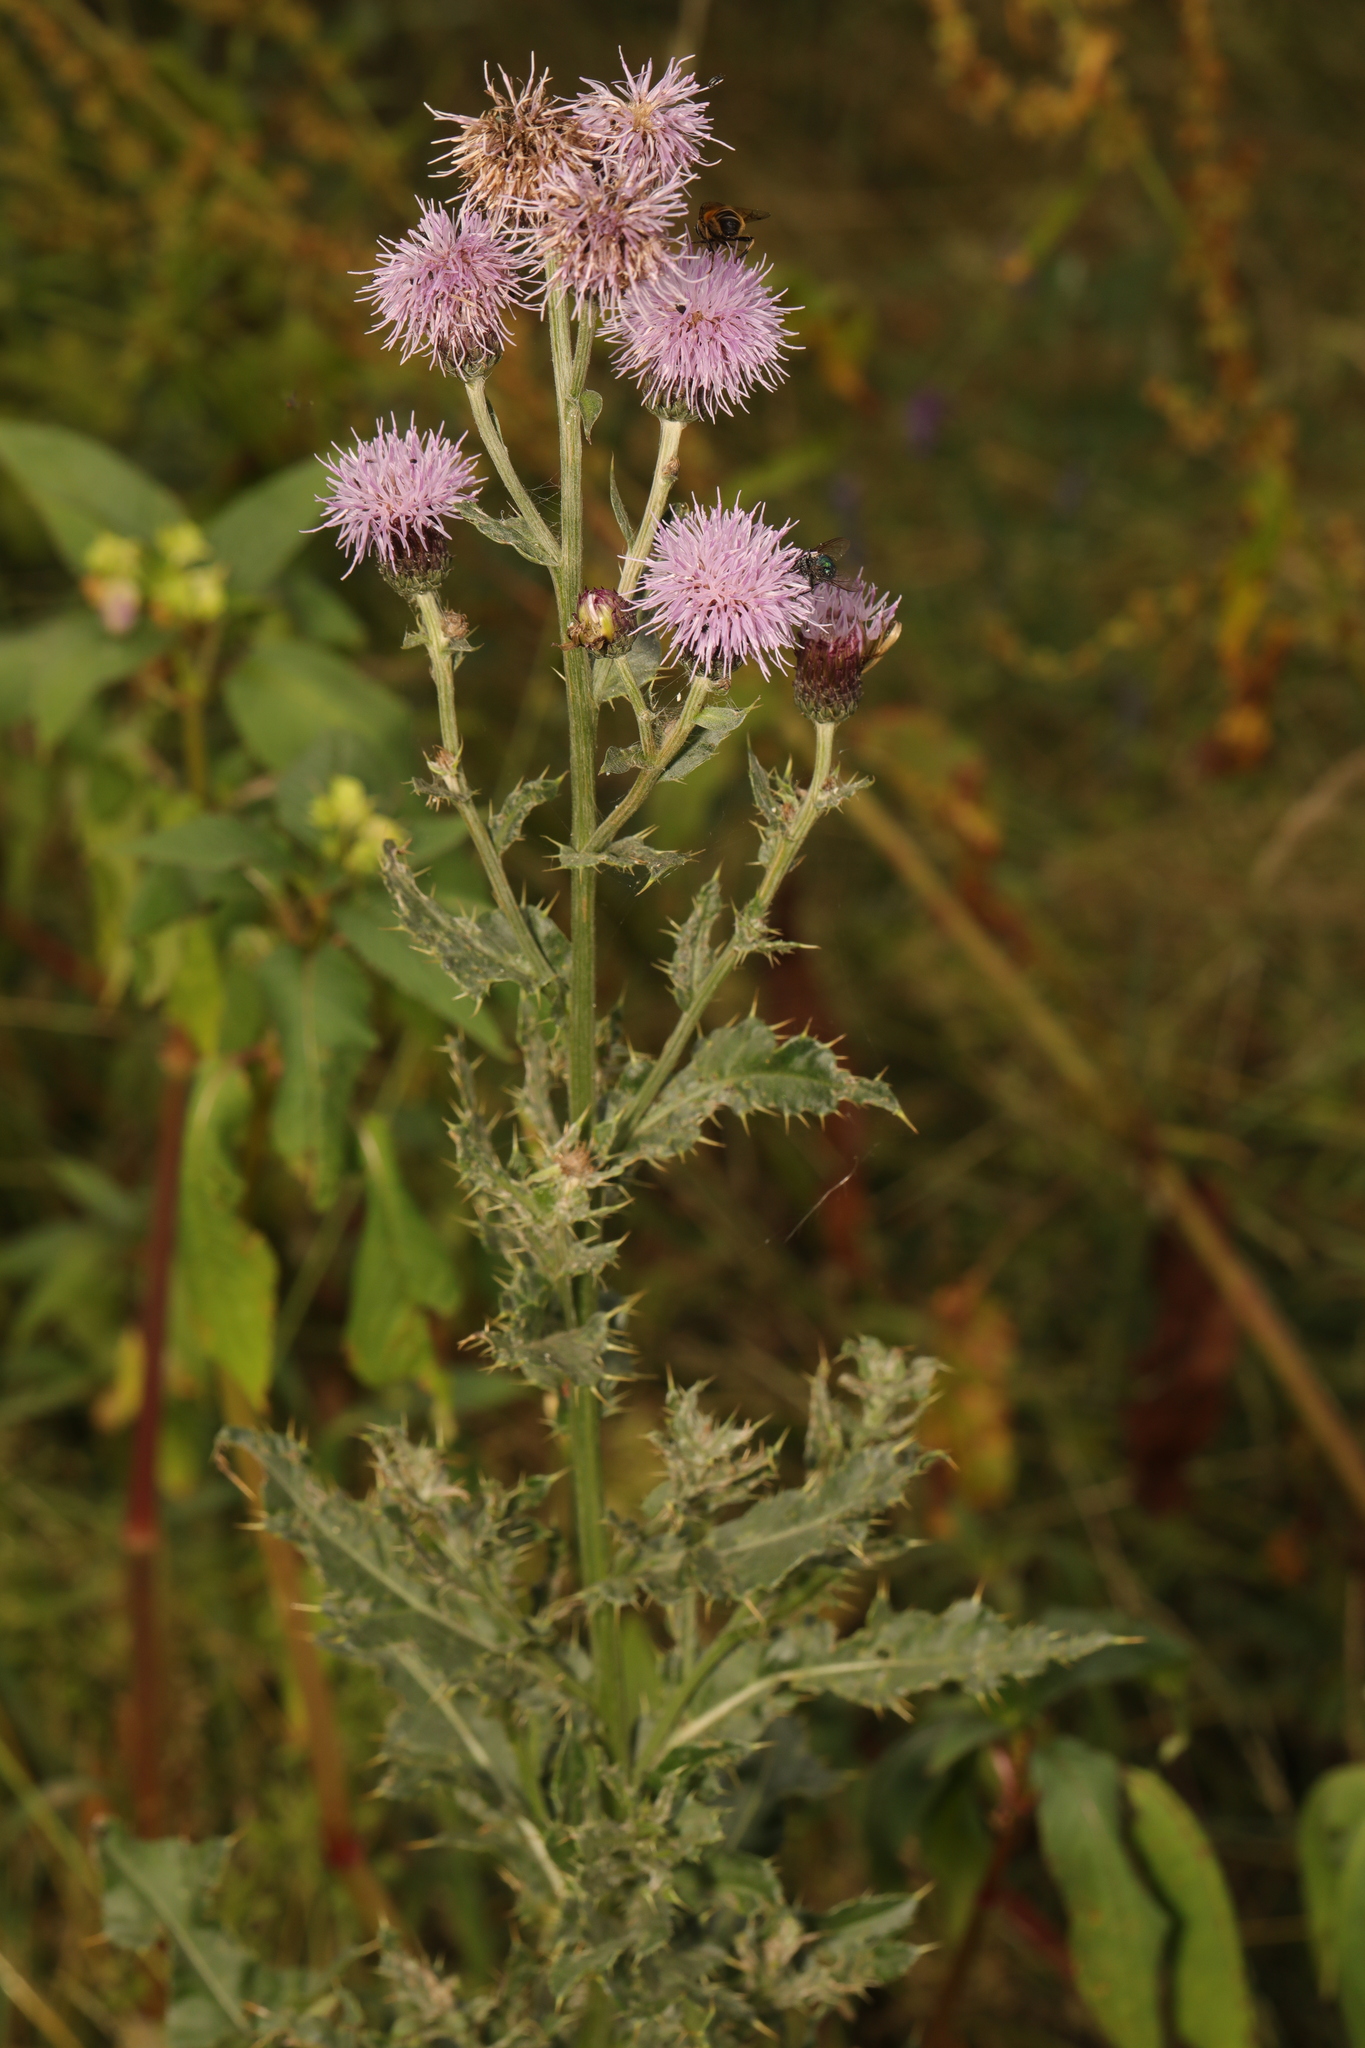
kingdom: Plantae
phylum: Tracheophyta
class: Magnoliopsida
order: Asterales
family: Asteraceae
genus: Cirsium
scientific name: Cirsium arvense
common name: Creeping thistle
